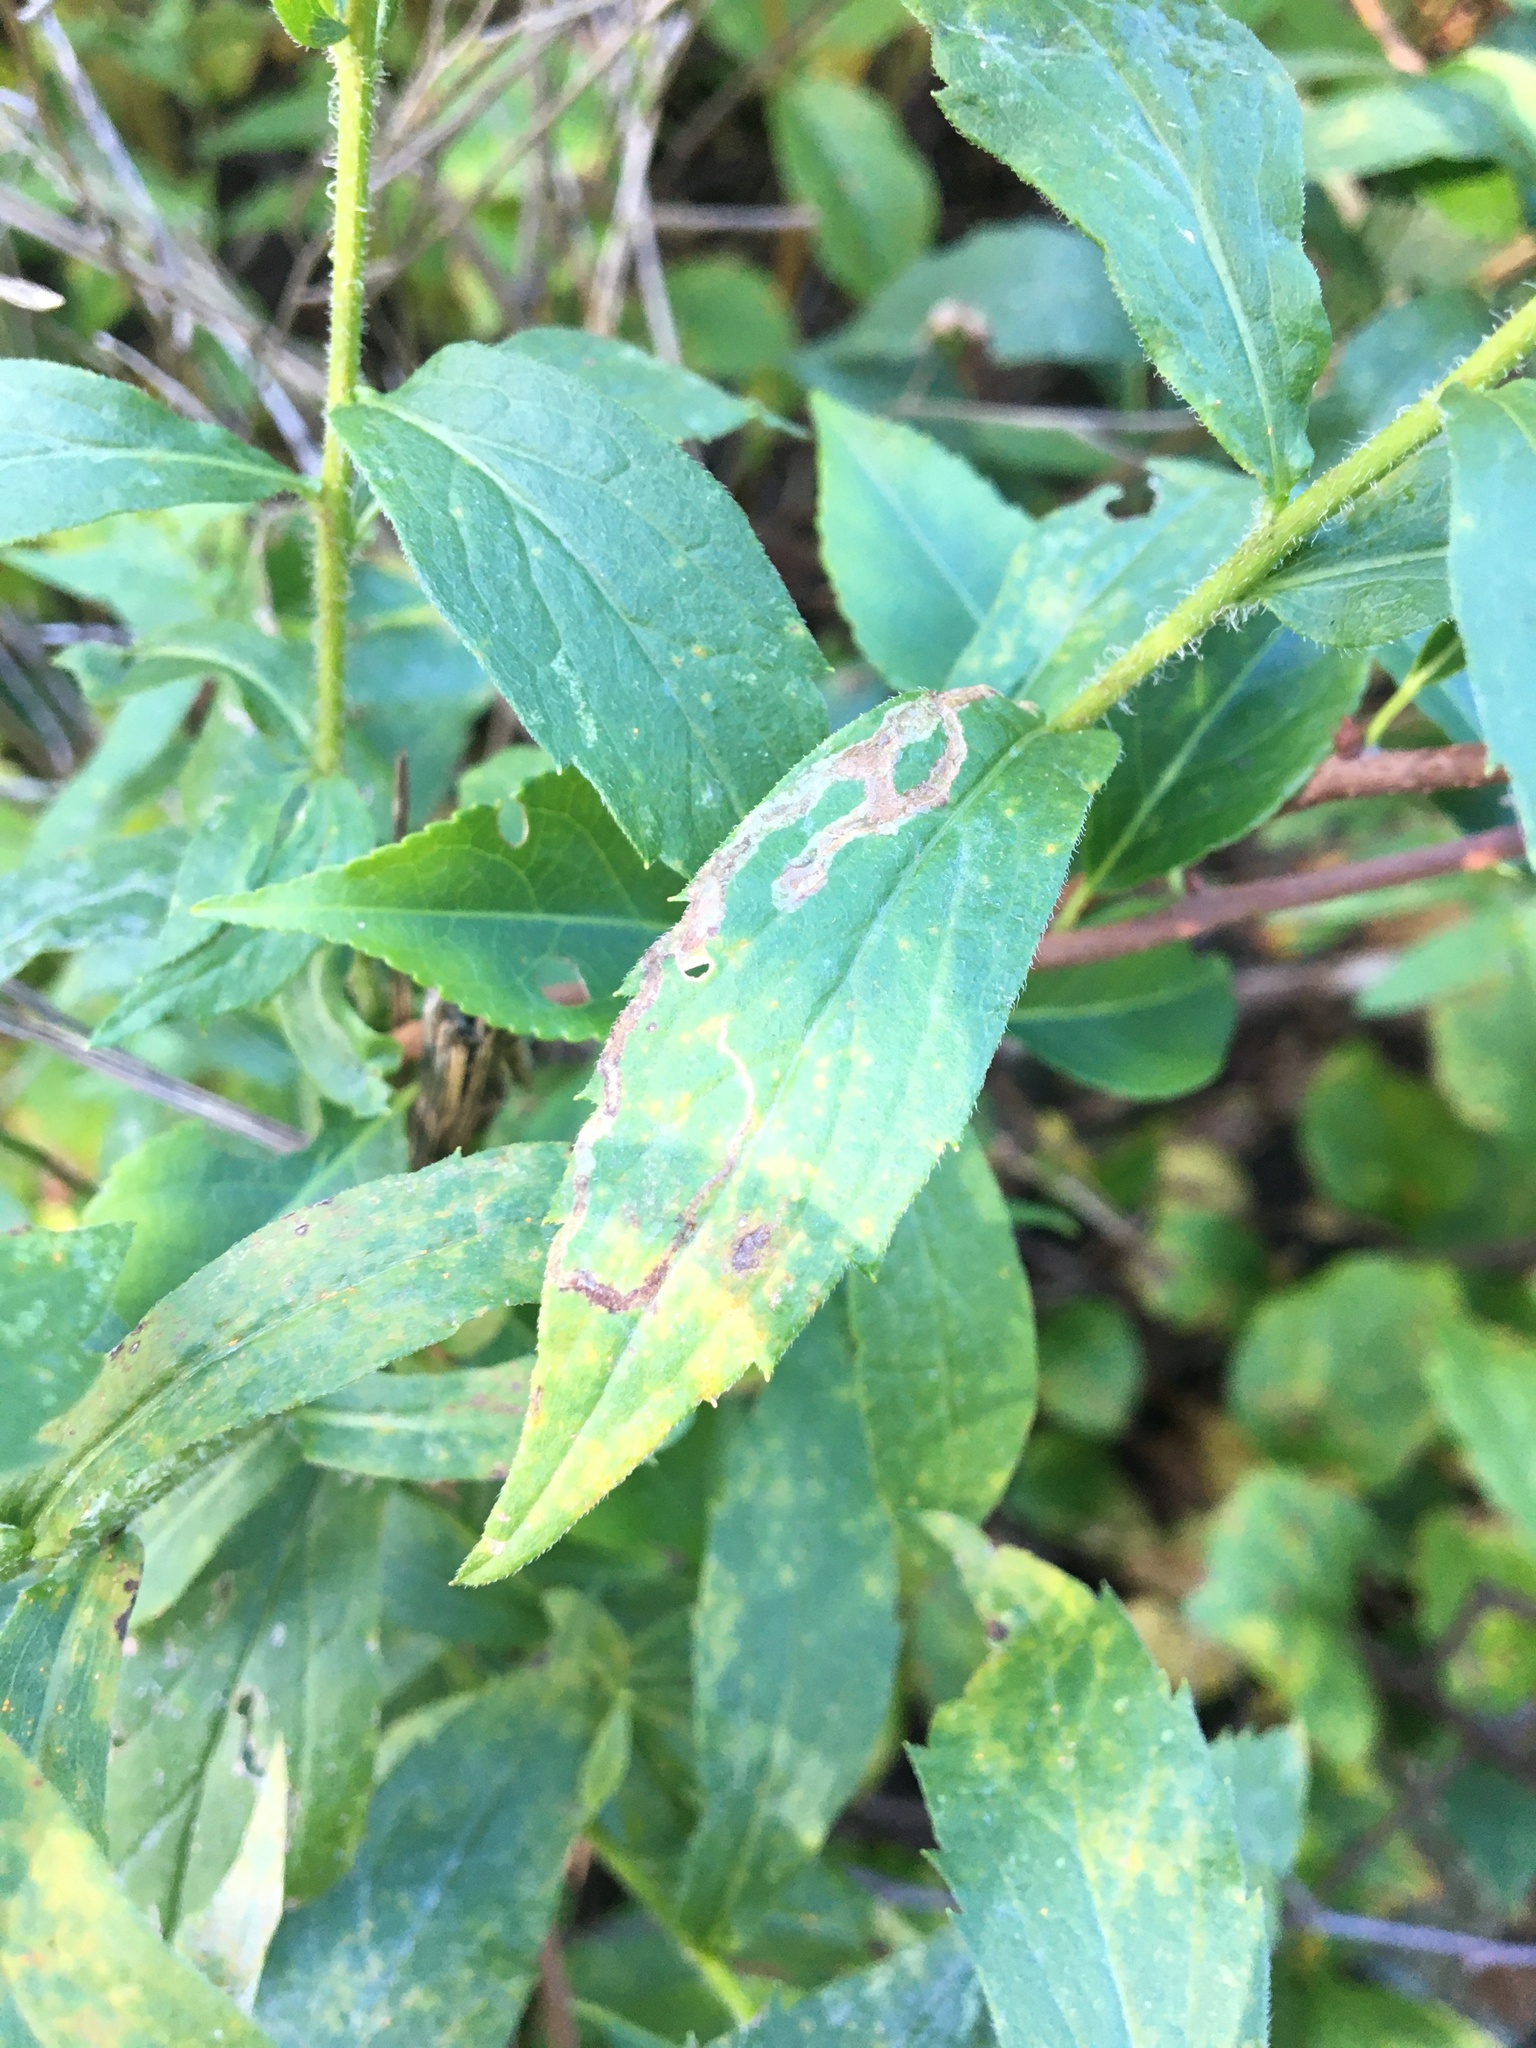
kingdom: Animalia
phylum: Arthropoda
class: Insecta
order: Diptera
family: Agromyzidae
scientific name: Agromyzidae
